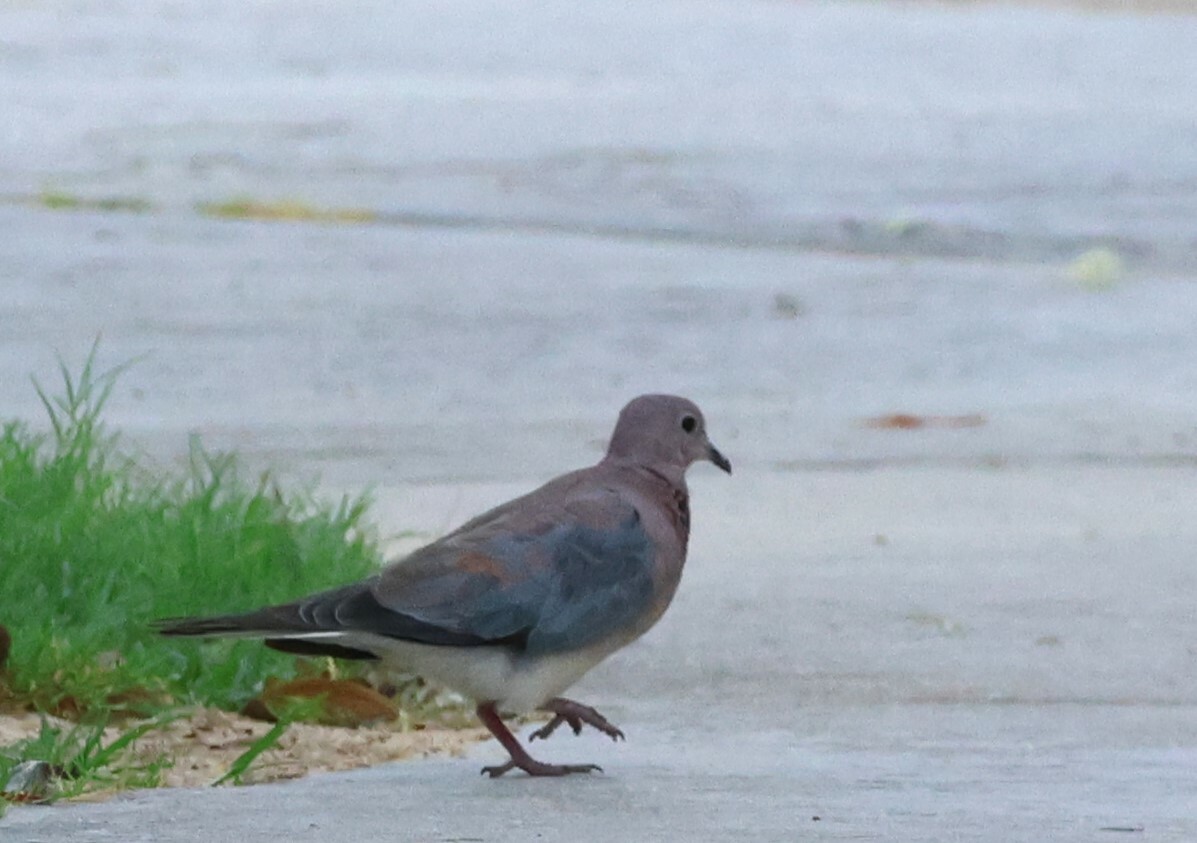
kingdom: Animalia
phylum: Chordata
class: Aves
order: Columbiformes
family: Columbidae
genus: Spilopelia
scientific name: Spilopelia senegalensis
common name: Laughing dove
